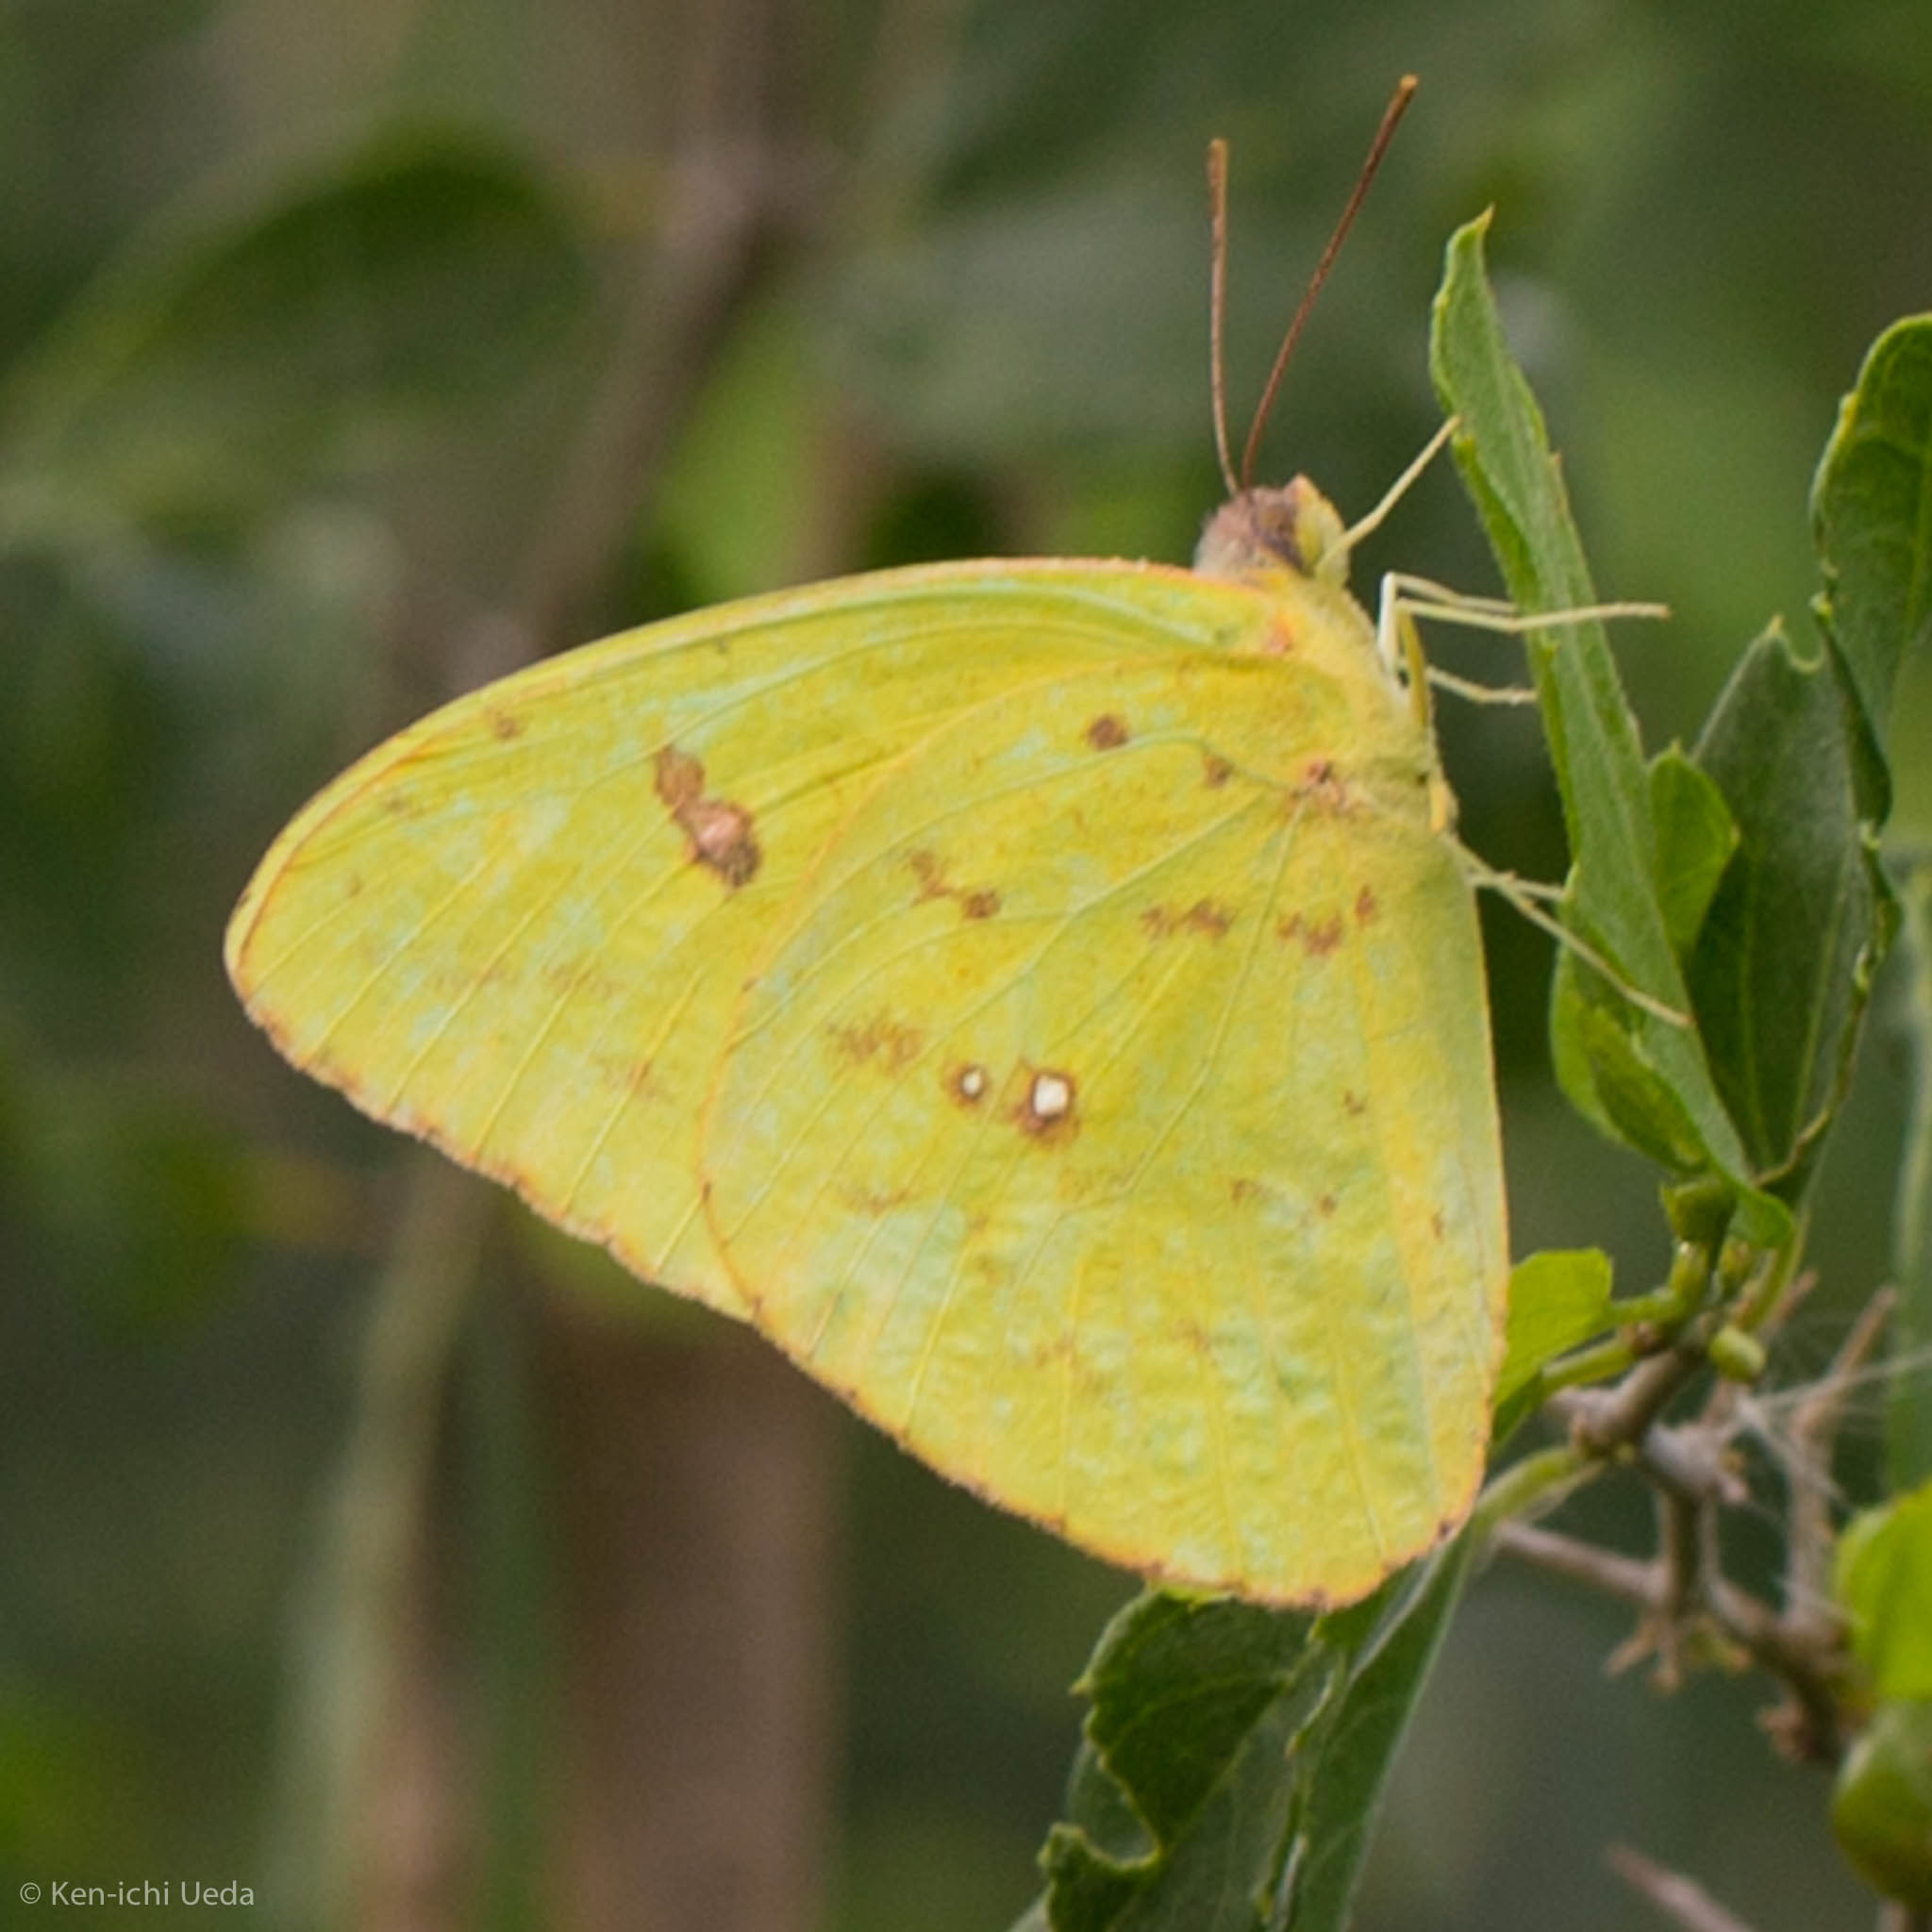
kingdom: Animalia
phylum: Arthropoda
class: Insecta
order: Lepidoptera
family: Pieridae
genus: Phoebis
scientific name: Phoebis sennae
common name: Cloudless sulphur
